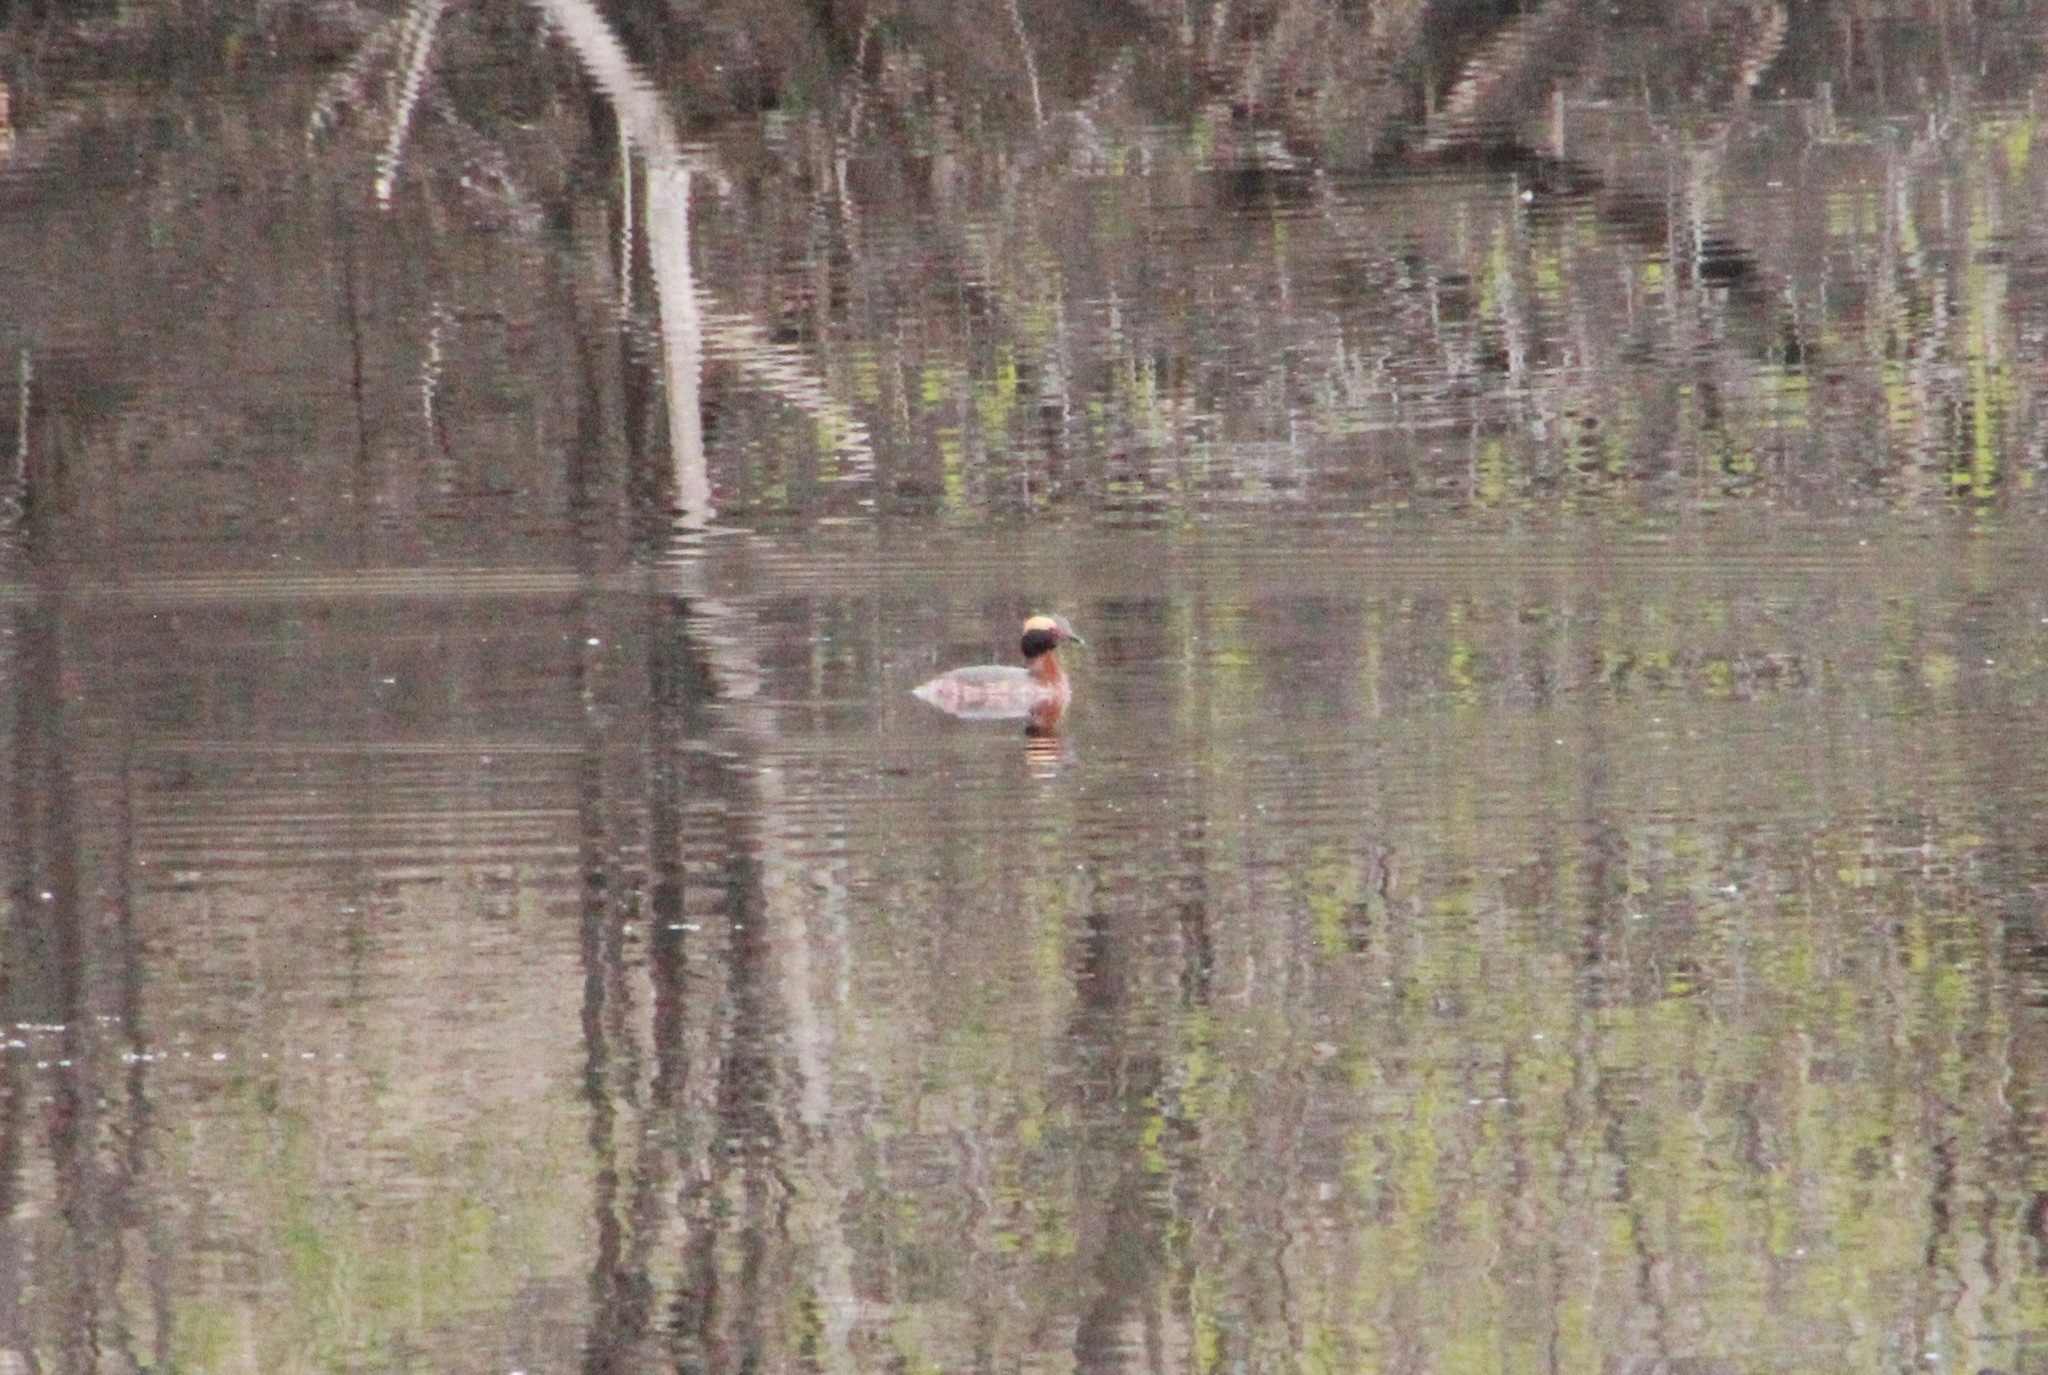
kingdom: Animalia
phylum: Chordata
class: Aves
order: Podicipediformes
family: Podicipedidae
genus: Podiceps
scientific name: Podiceps auritus
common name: Horned grebe
